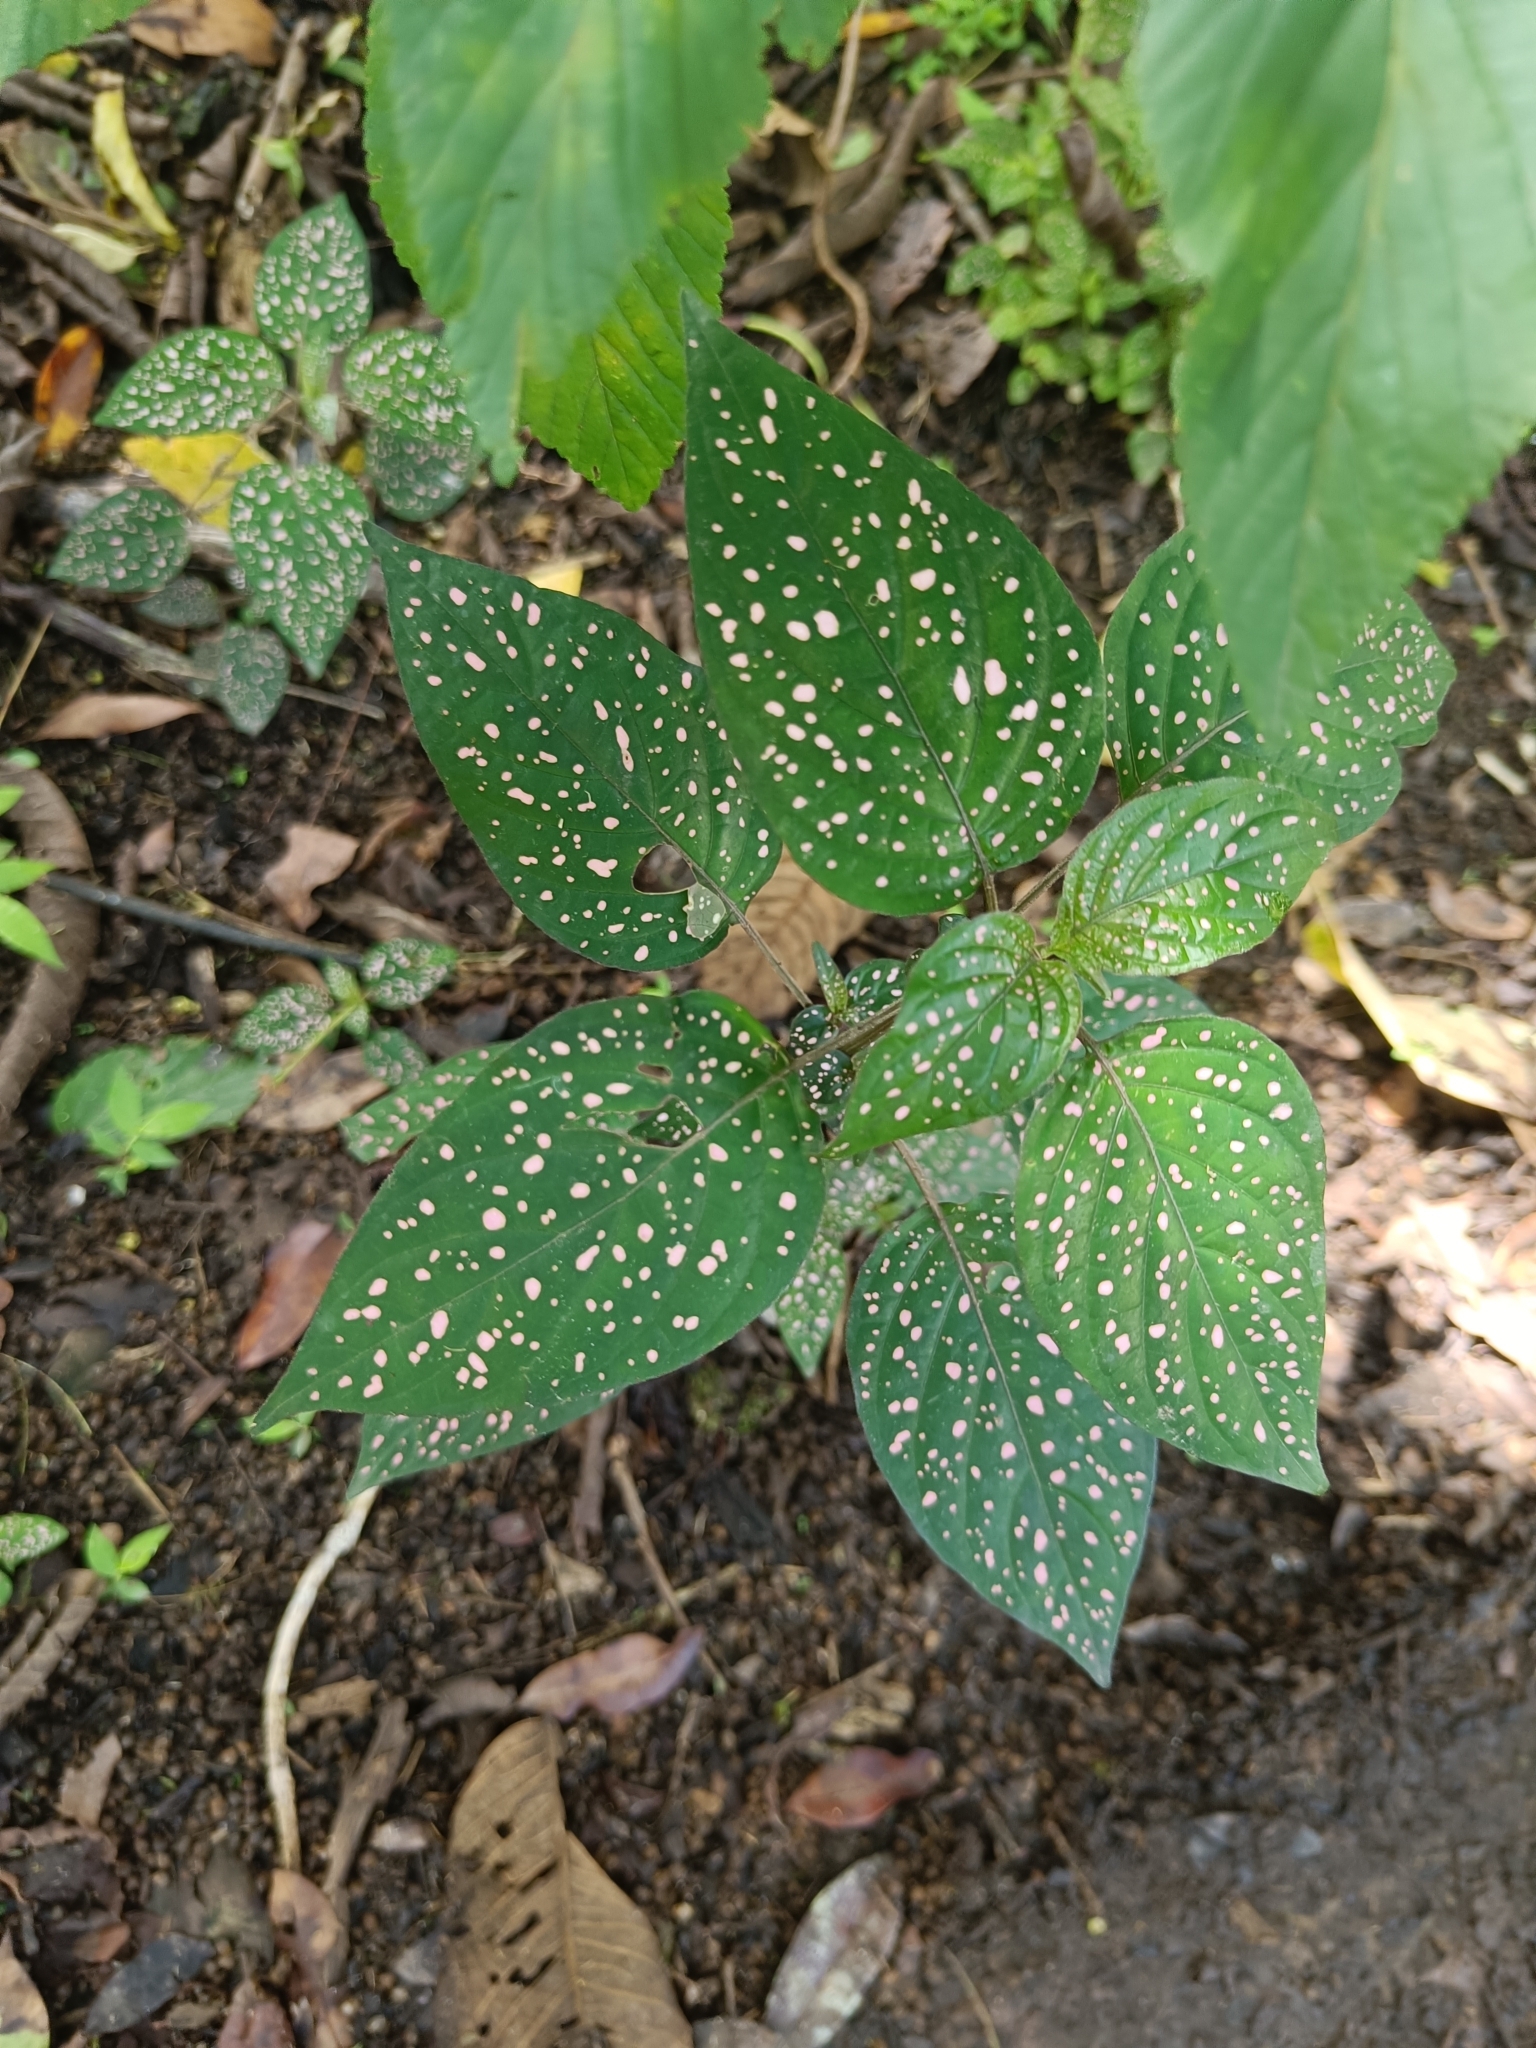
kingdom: Plantae
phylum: Tracheophyta
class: Magnoliopsida
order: Lamiales
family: Acanthaceae
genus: Hypoestes
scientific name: Hypoestes phyllostachya
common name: Polkadot-plant
